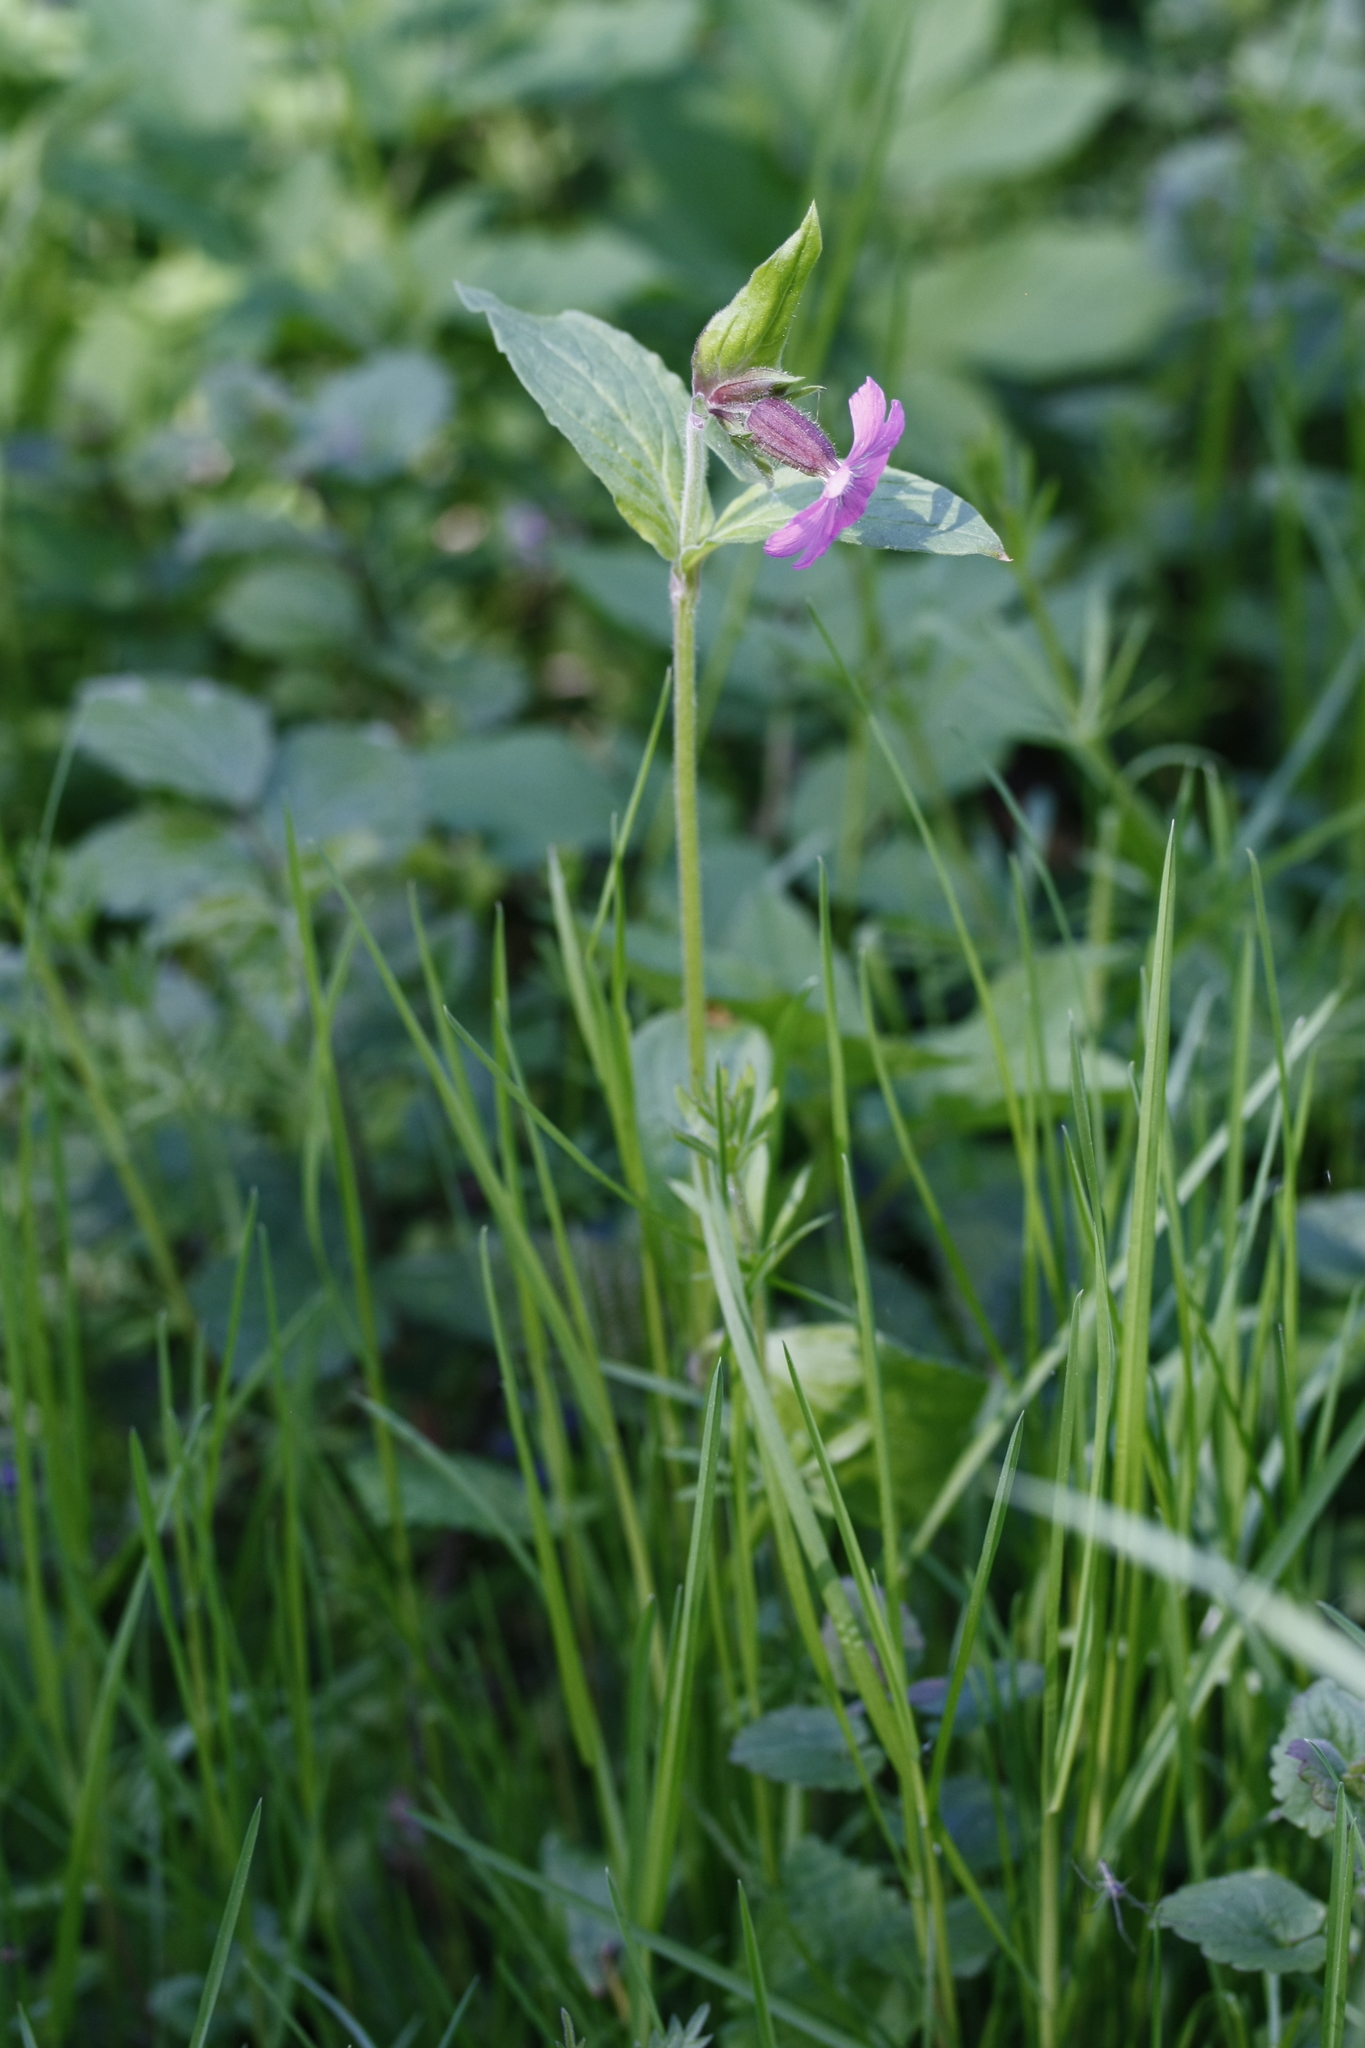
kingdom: Plantae
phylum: Tracheophyta
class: Magnoliopsida
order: Caryophyllales
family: Caryophyllaceae
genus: Silene
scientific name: Silene dioica
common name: Red campion
